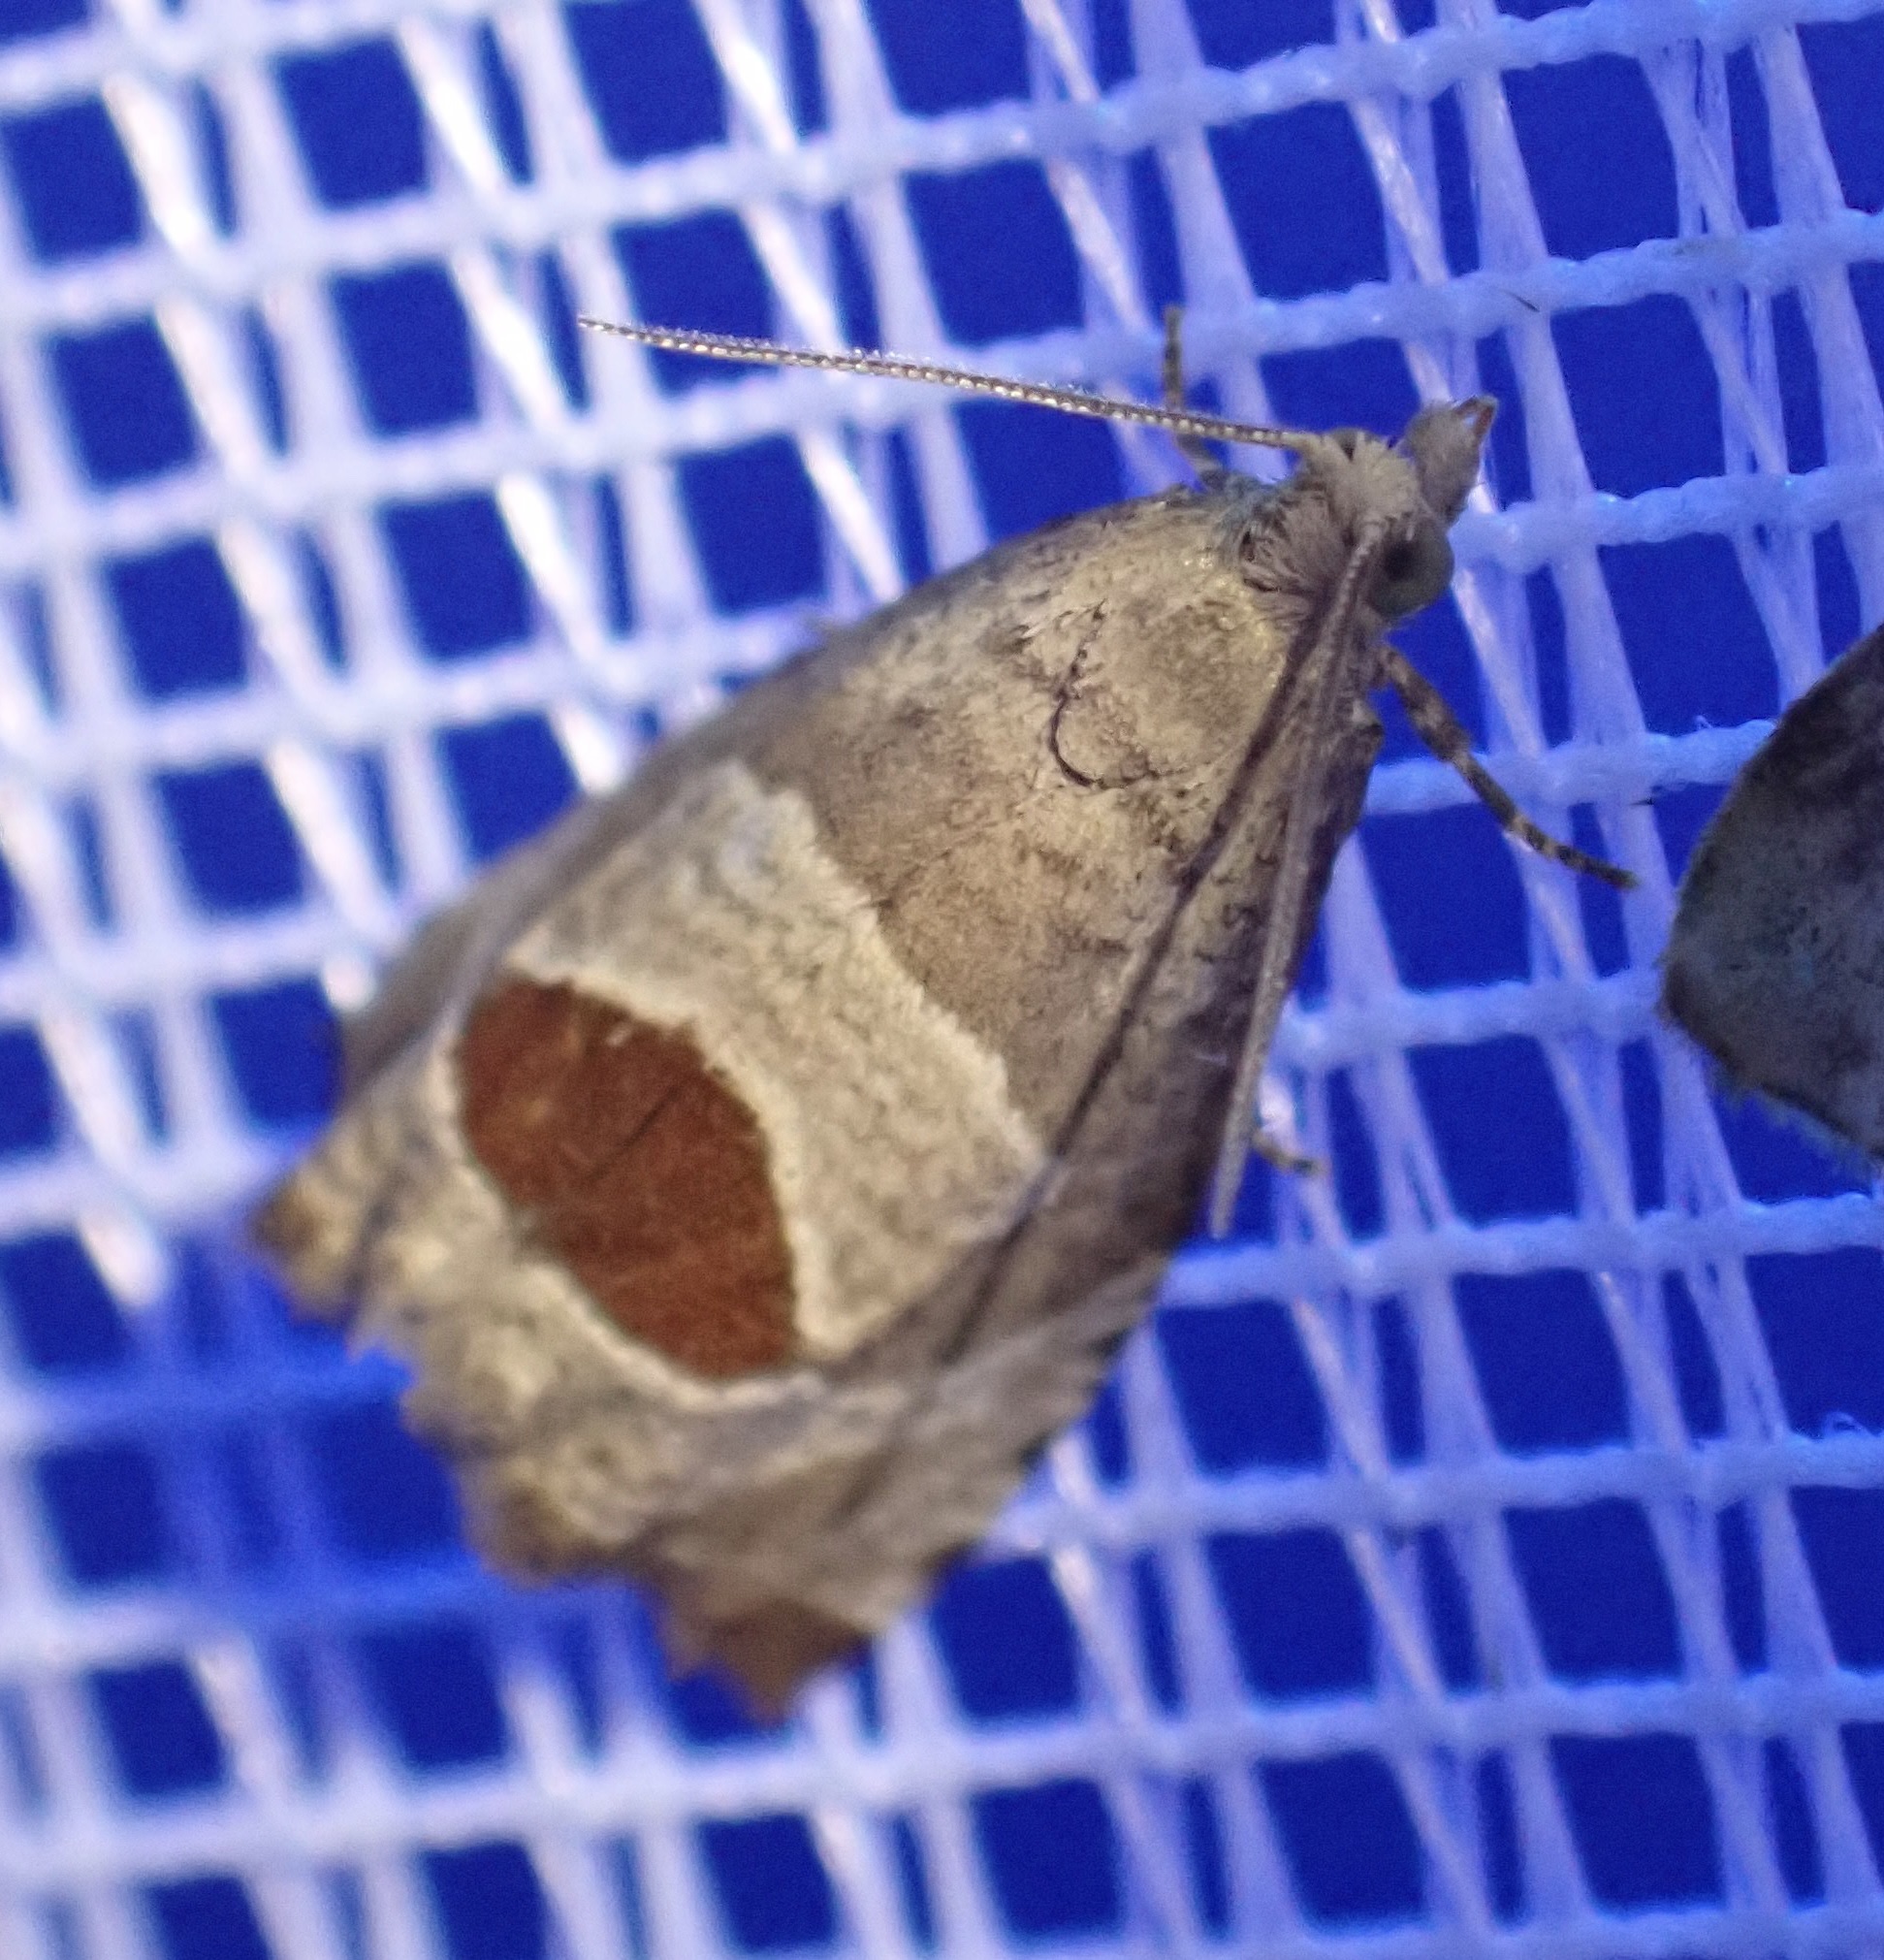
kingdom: Animalia
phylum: Arthropoda
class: Insecta
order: Lepidoptera
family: Tortricidae
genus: Notocelia
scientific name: Notocelia uddmanniana
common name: Bramble shoot moth
